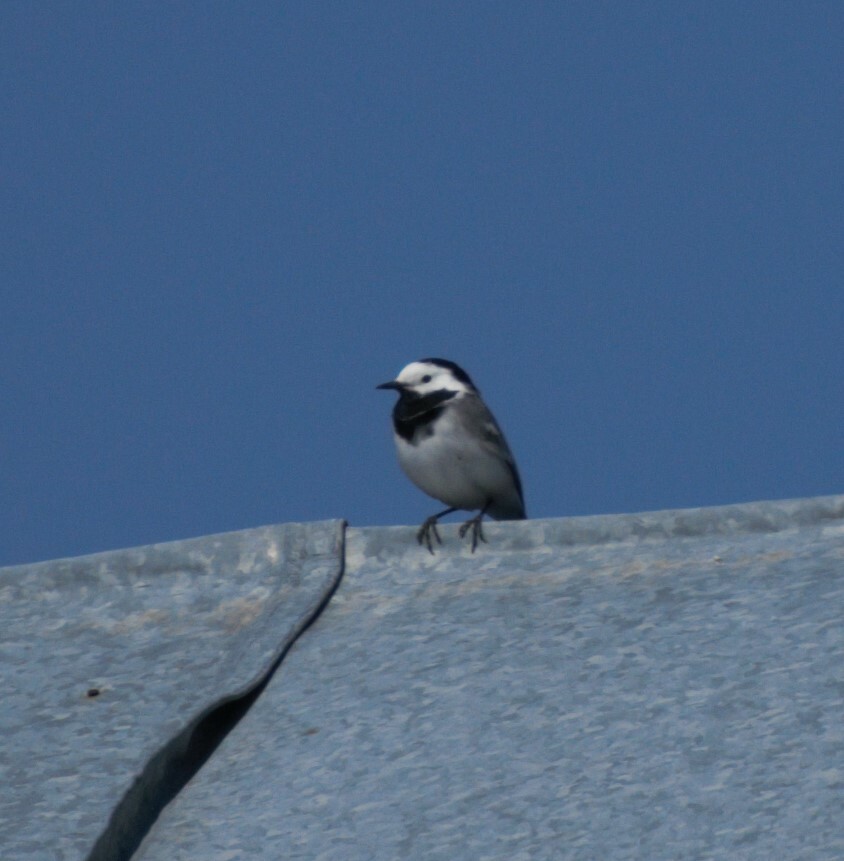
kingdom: Animalia
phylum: Chordata
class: Aves
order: Passeriformes
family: Motacillidae
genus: Motacilla
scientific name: Motacilla alba
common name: White wagtail
